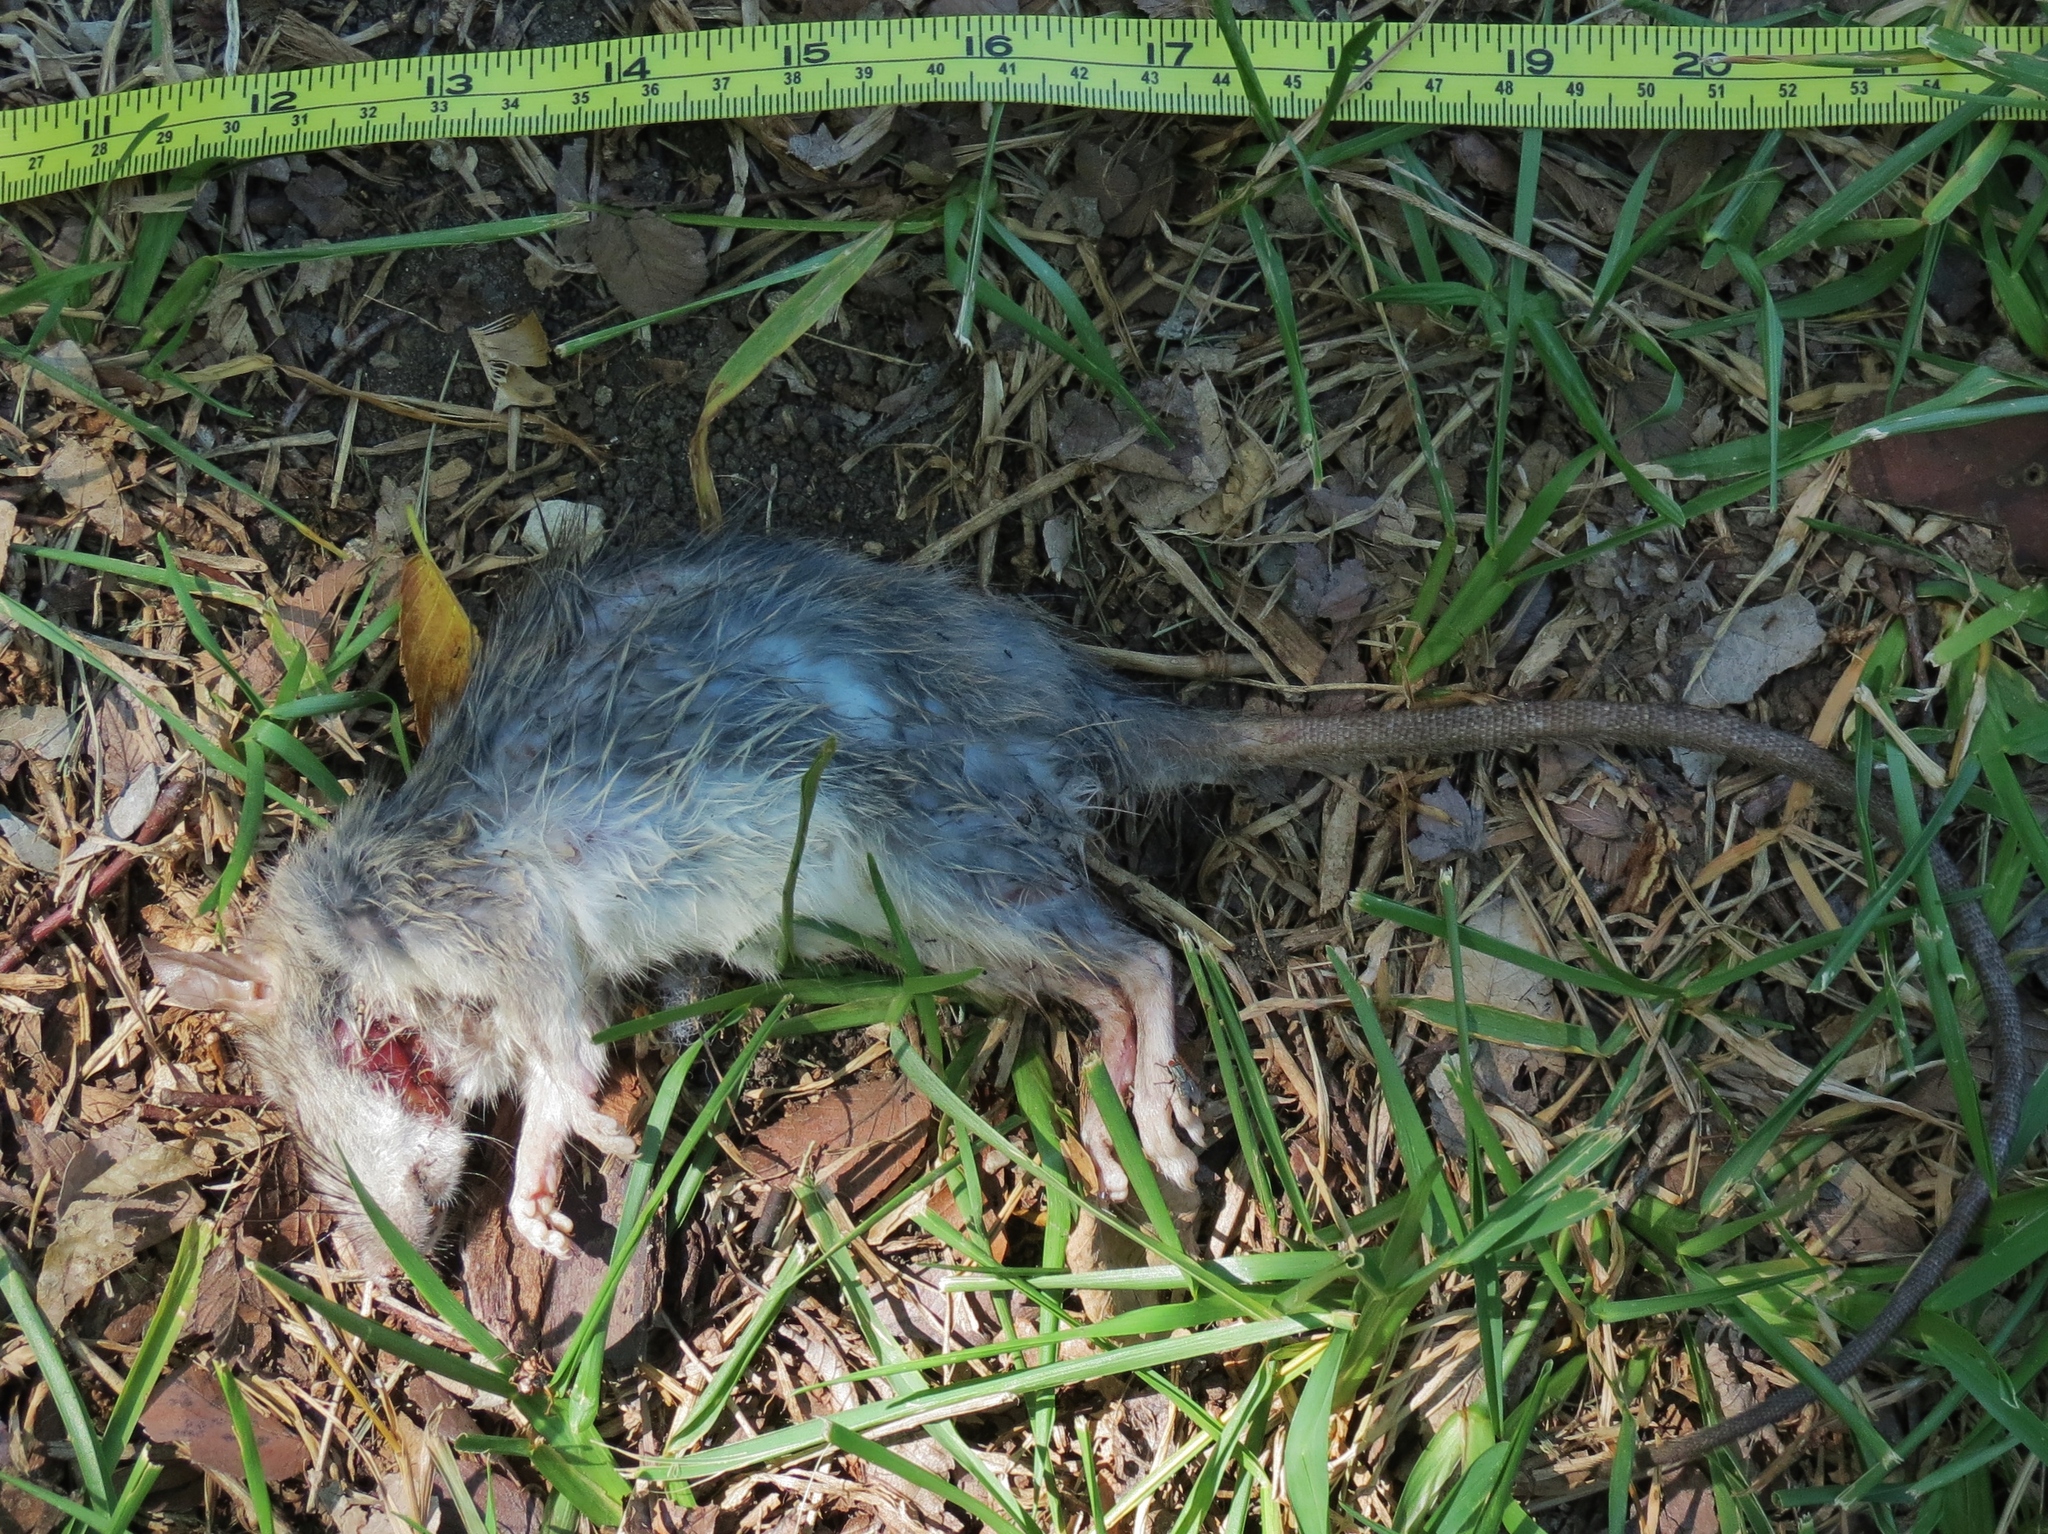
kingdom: Animalia
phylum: Chordata
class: Mammalia
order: Rodentia
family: Muridae
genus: Rattus
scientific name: Rattus rattus
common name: Black rat
